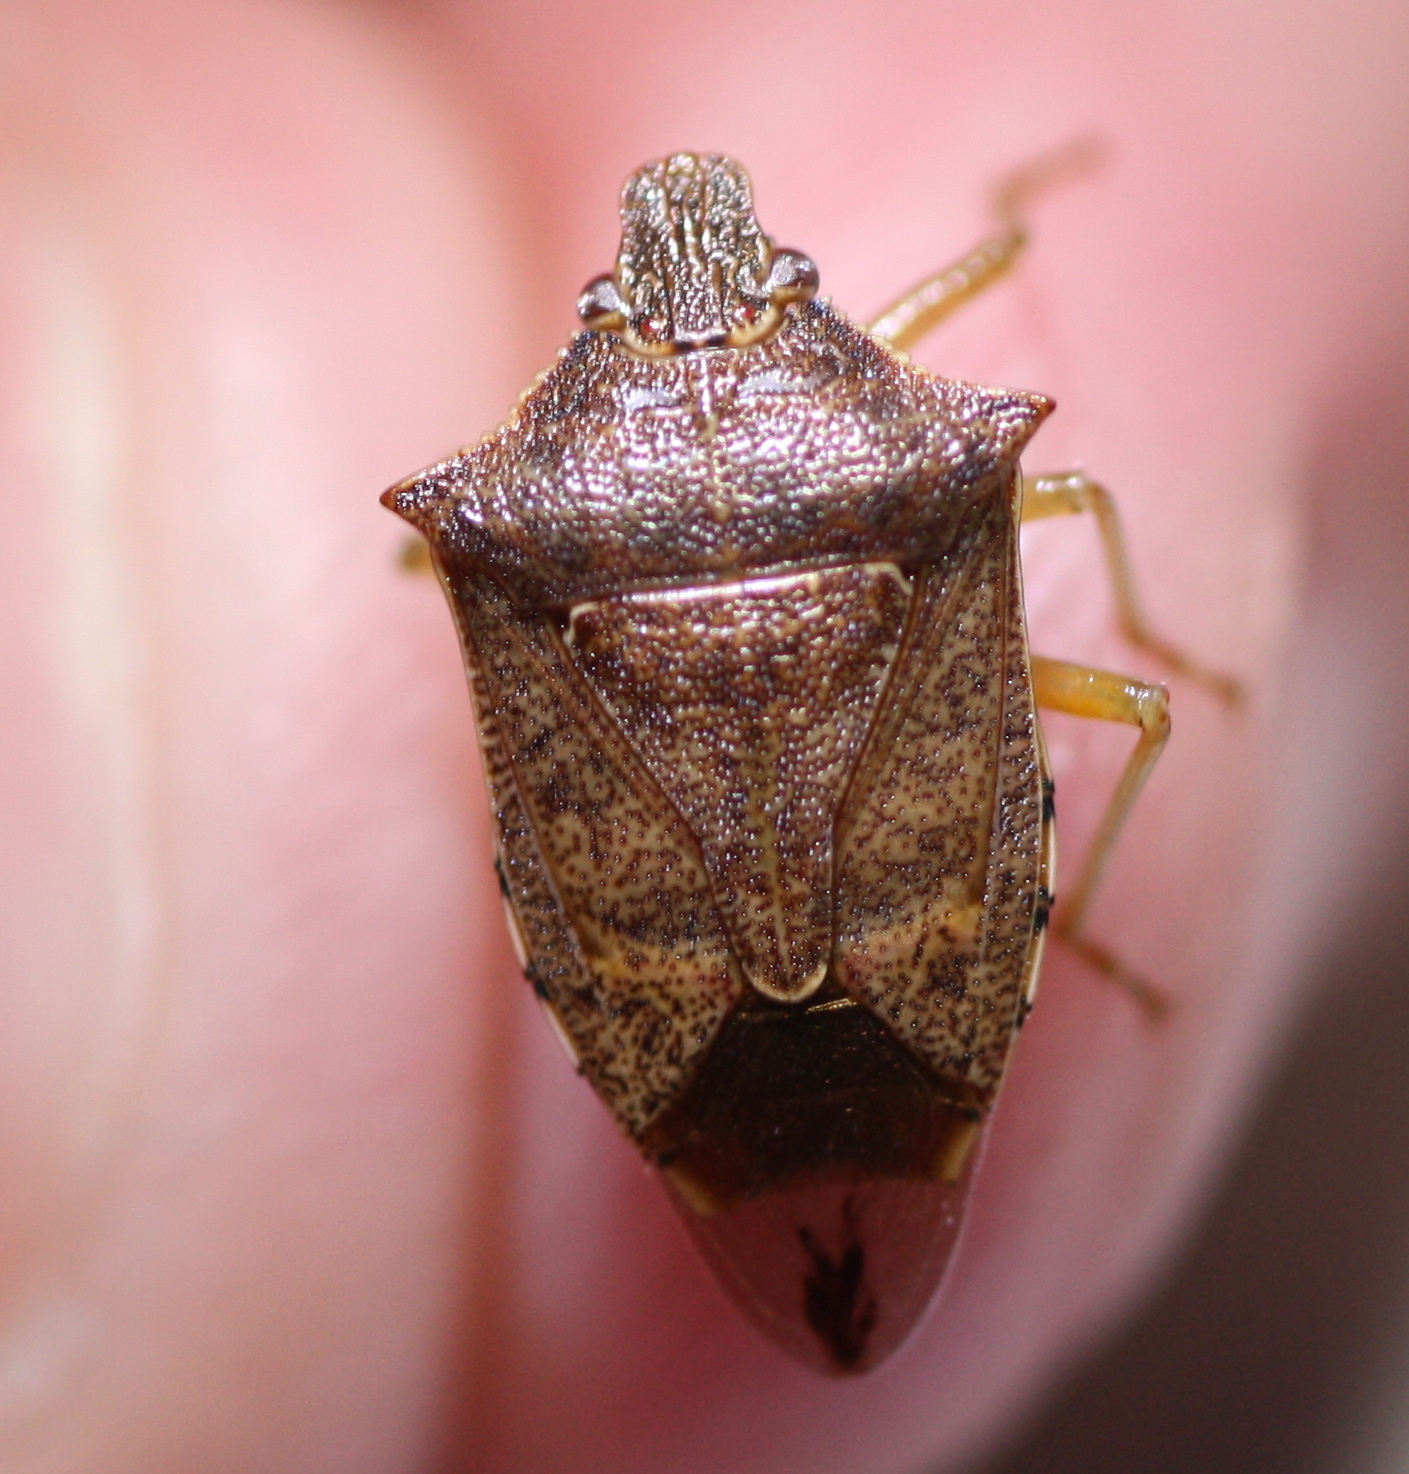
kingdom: Animalia
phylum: Arthropoda
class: Insecta
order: Hemiptera
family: Pentatomidae
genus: Podisus
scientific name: Podisus maculiventris
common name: Spined soldier bug
